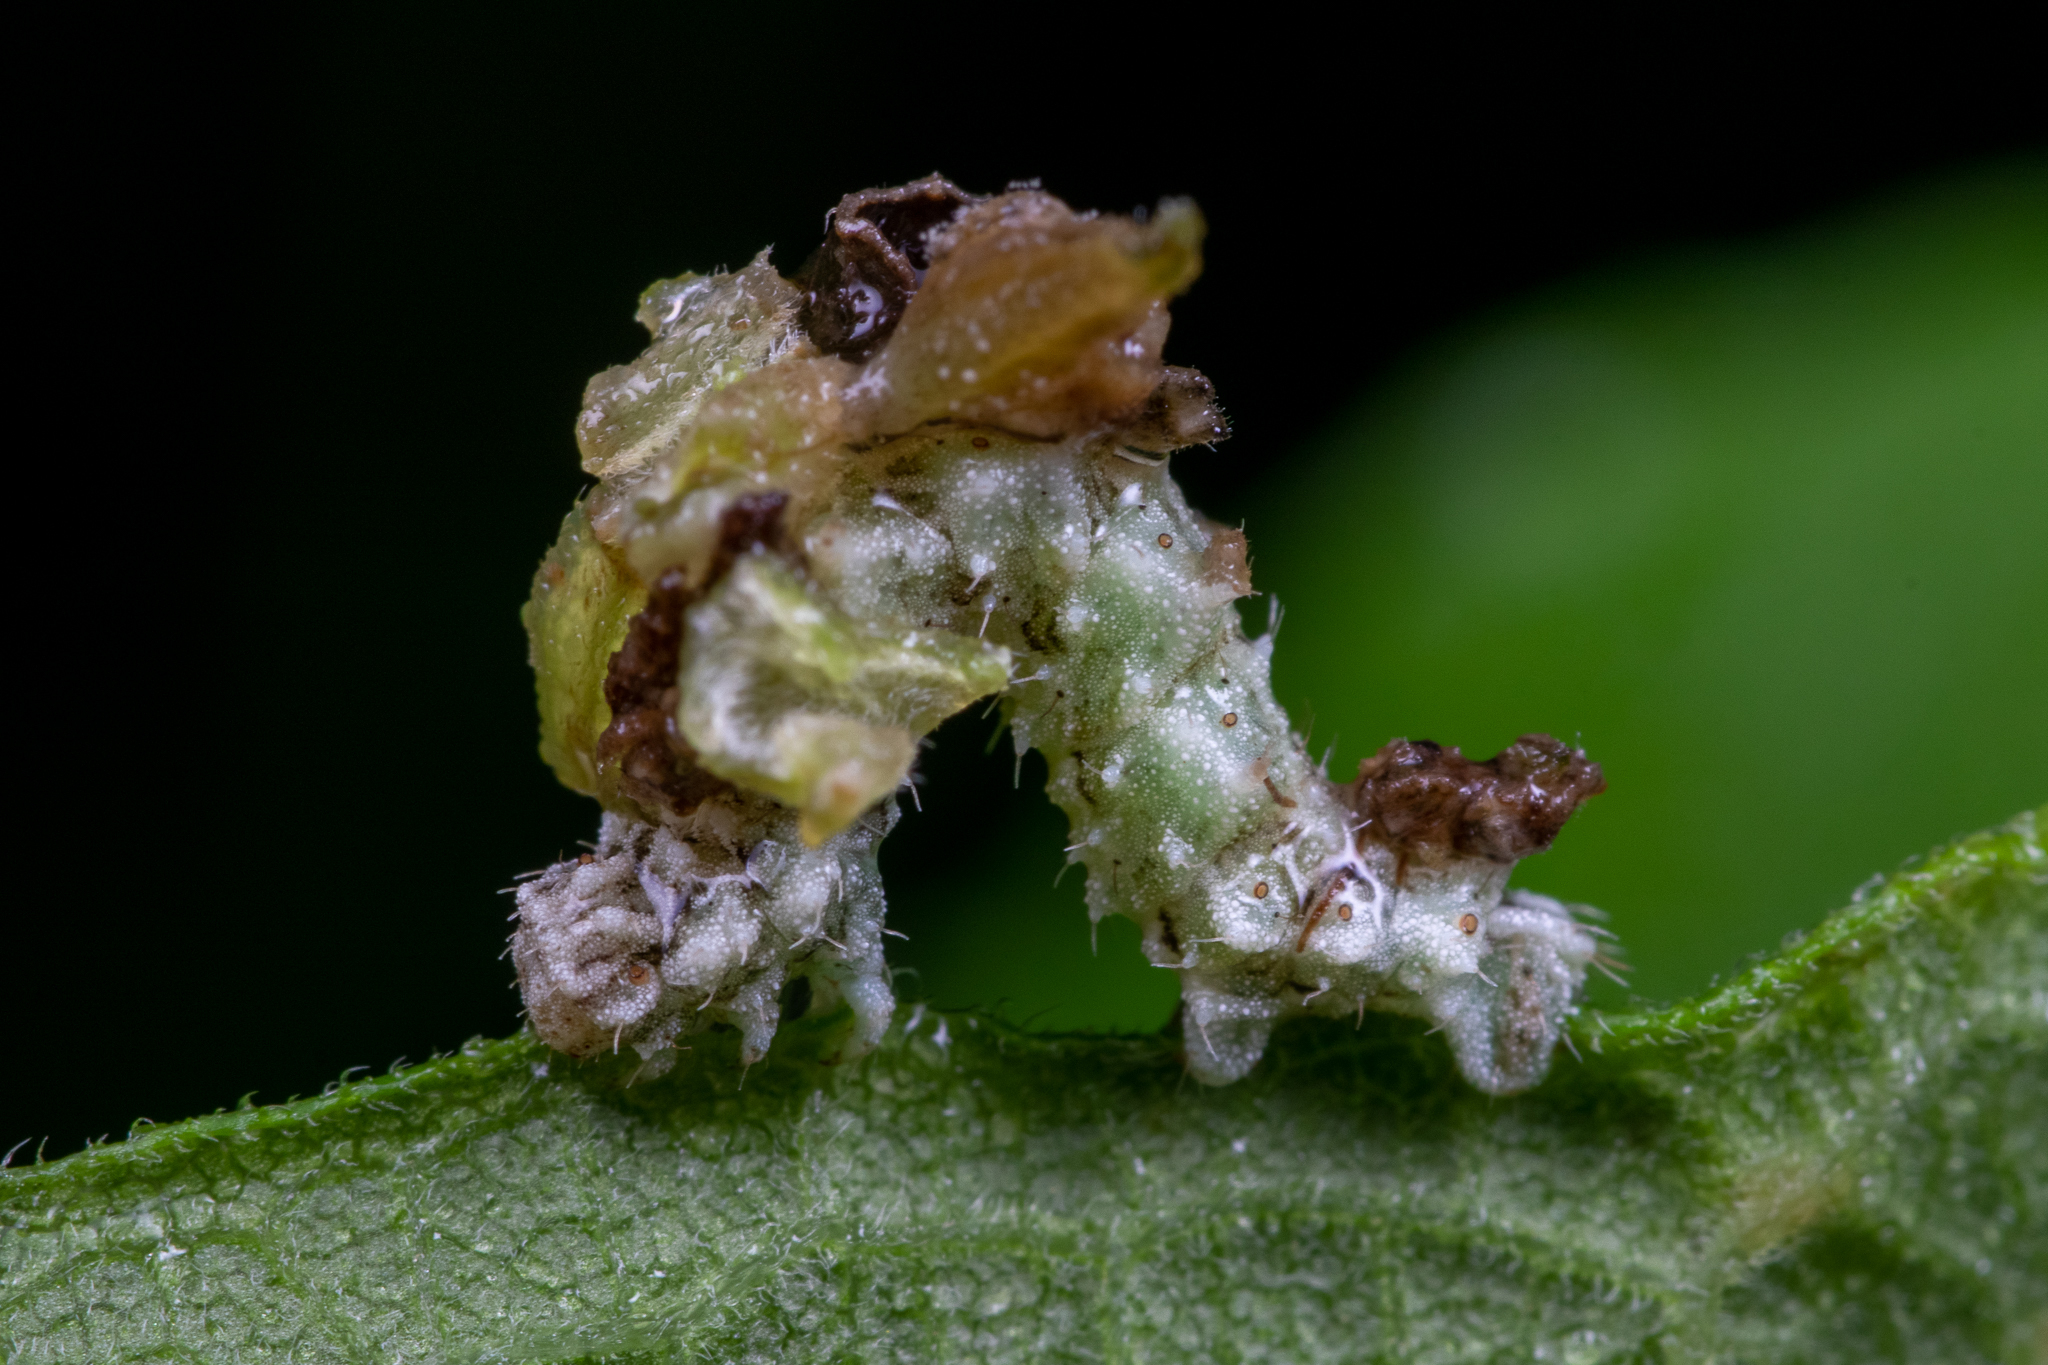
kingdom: Animalia
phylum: Arthropoda
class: Insecta
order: Lepidoptera
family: Geometridae
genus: Synchlora
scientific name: Synchlora
